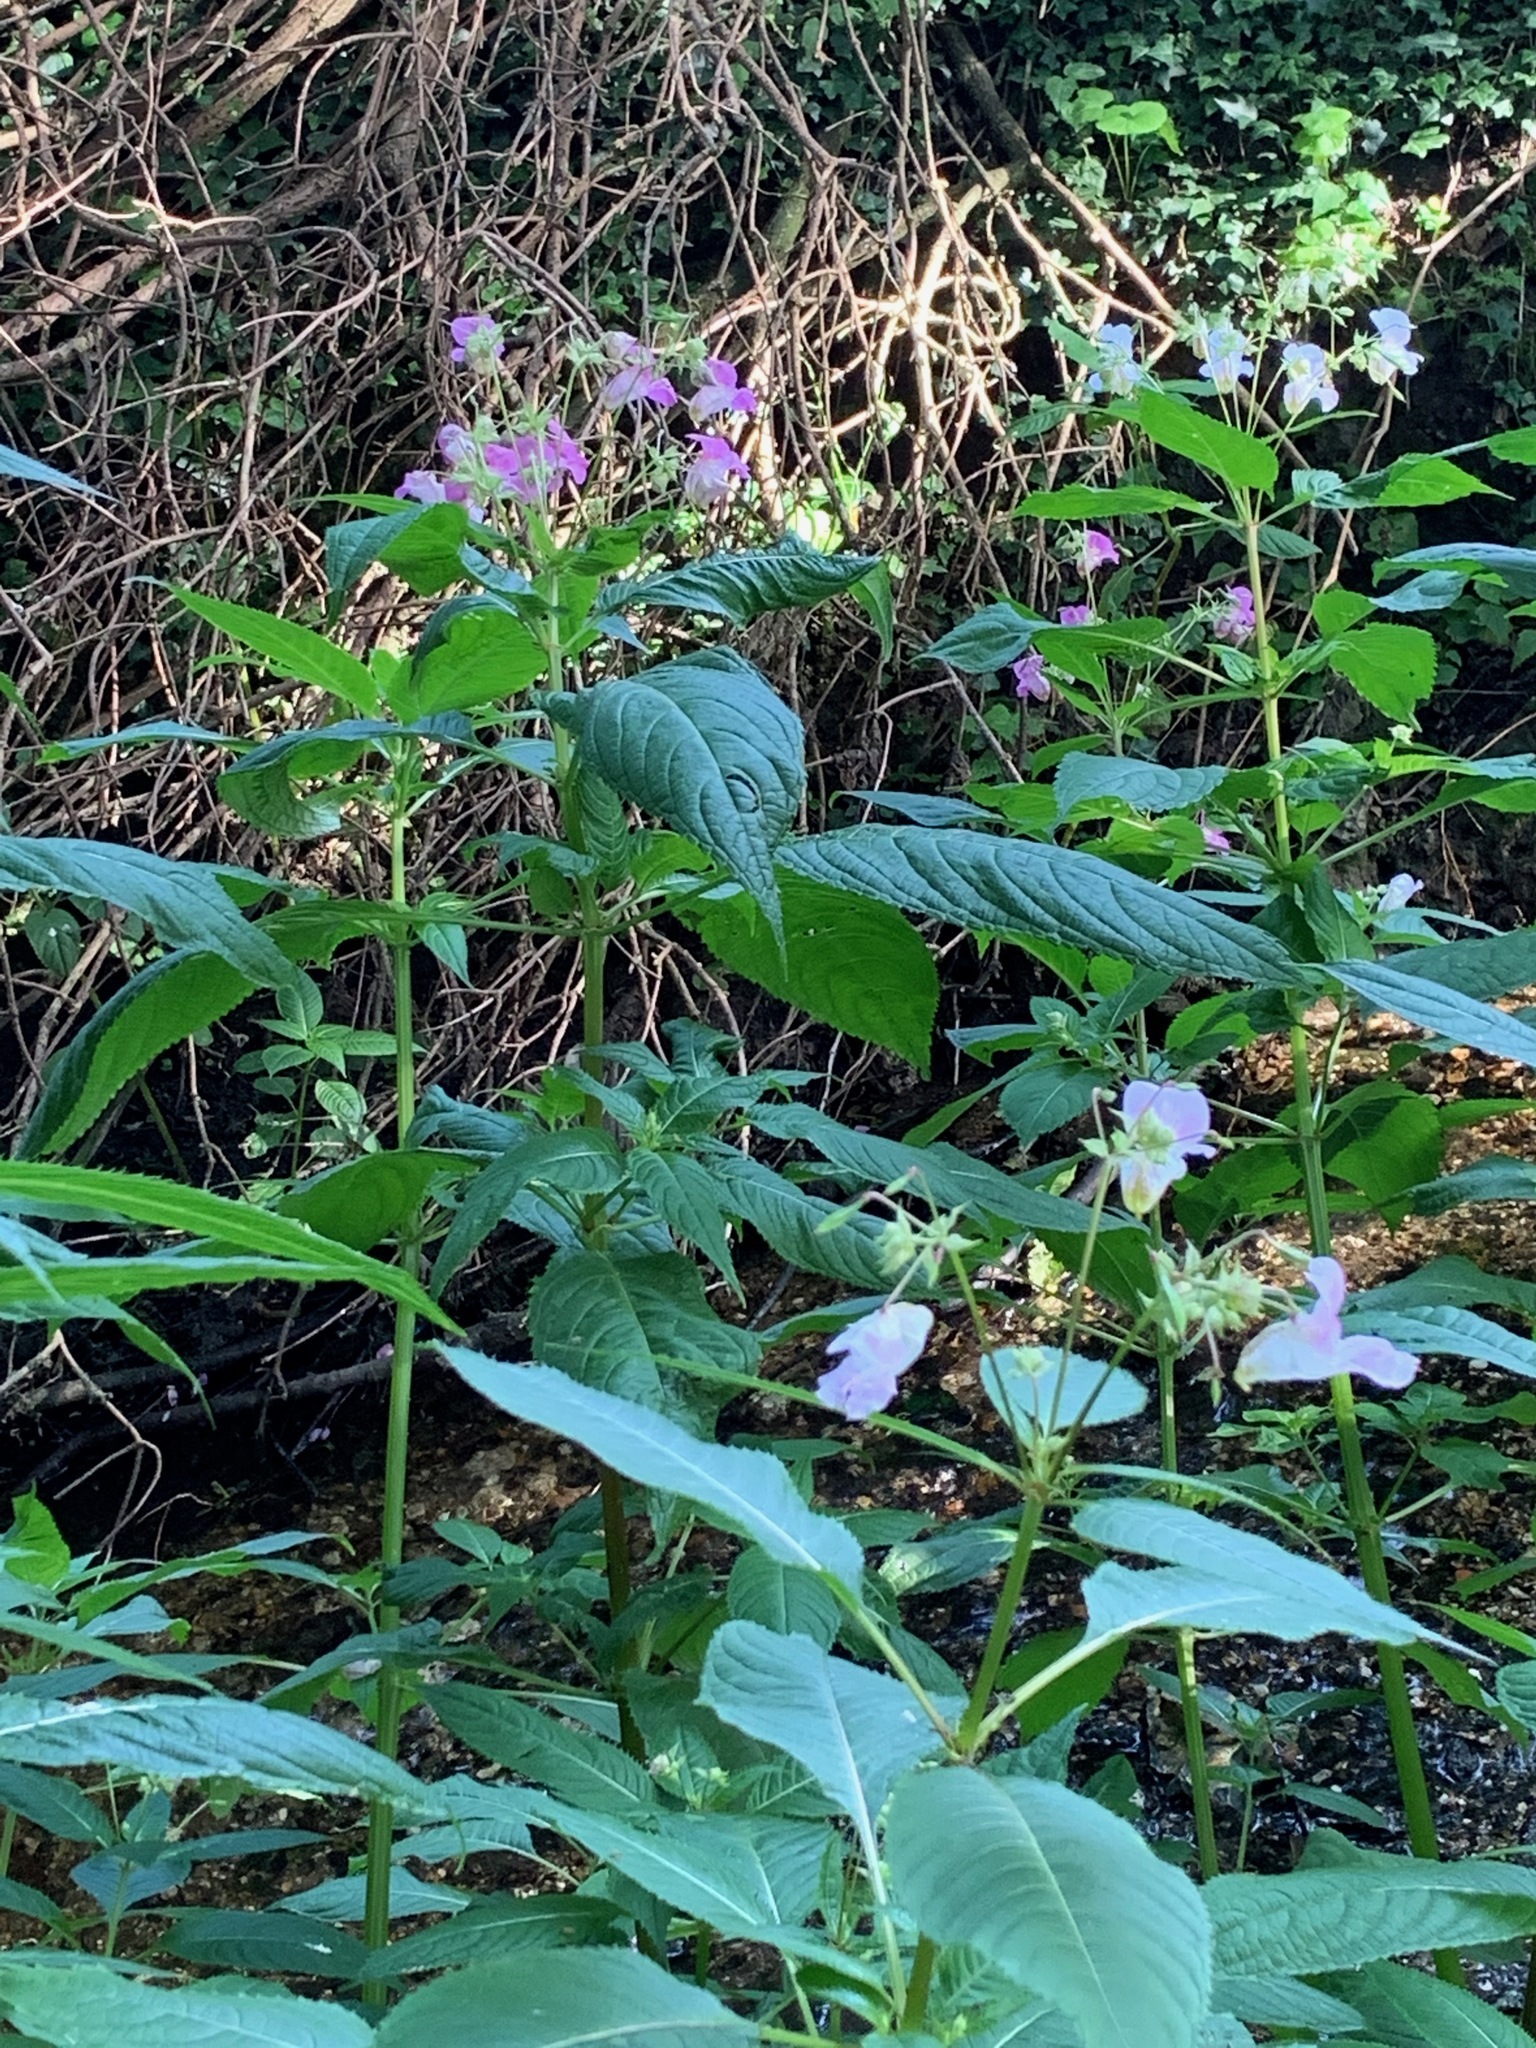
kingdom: Plantae
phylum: Tracheophyta
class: Magnoliopsida
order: Ericales
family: Balsaminaceae
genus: Impatiens
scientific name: Impatiens glandulifera
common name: Himalayan balsam
